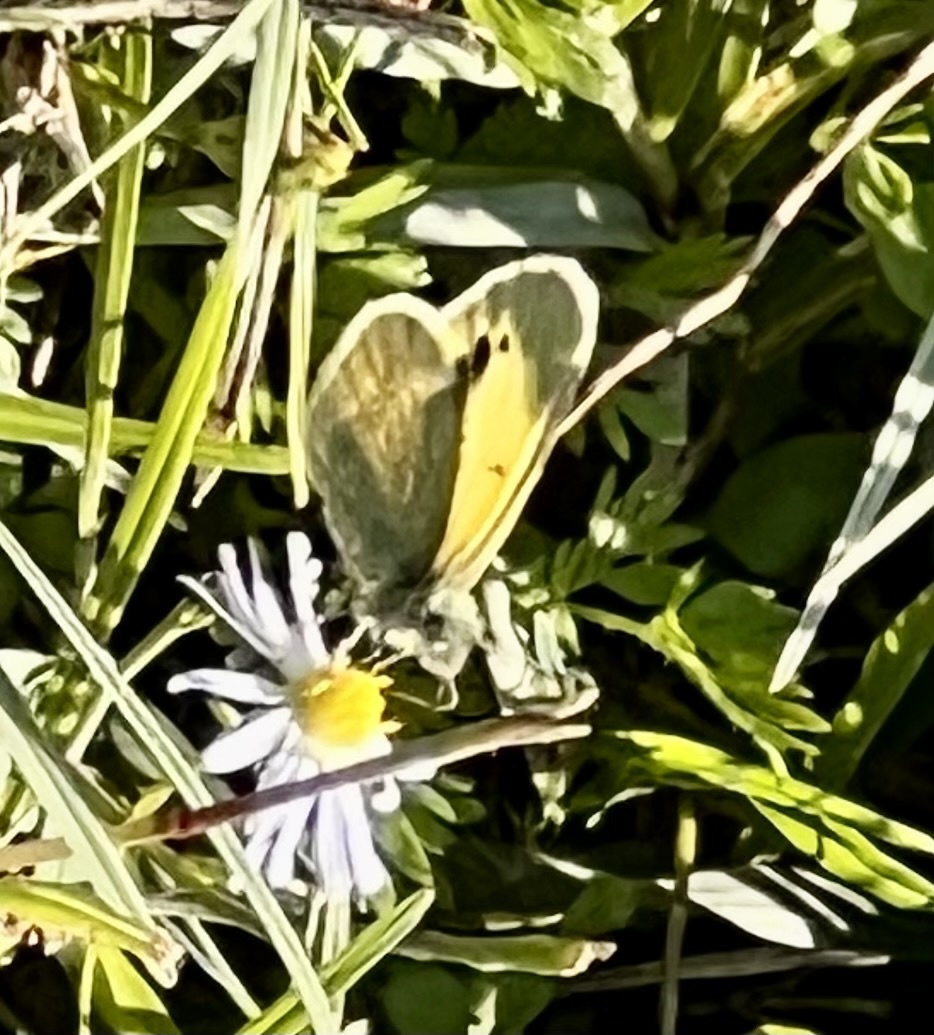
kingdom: Animalia
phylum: Arthropoda
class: Insecta
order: Lepidoptera
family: Pieridae
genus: Nathalis
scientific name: Nathalis iole
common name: Dainty sulphur
